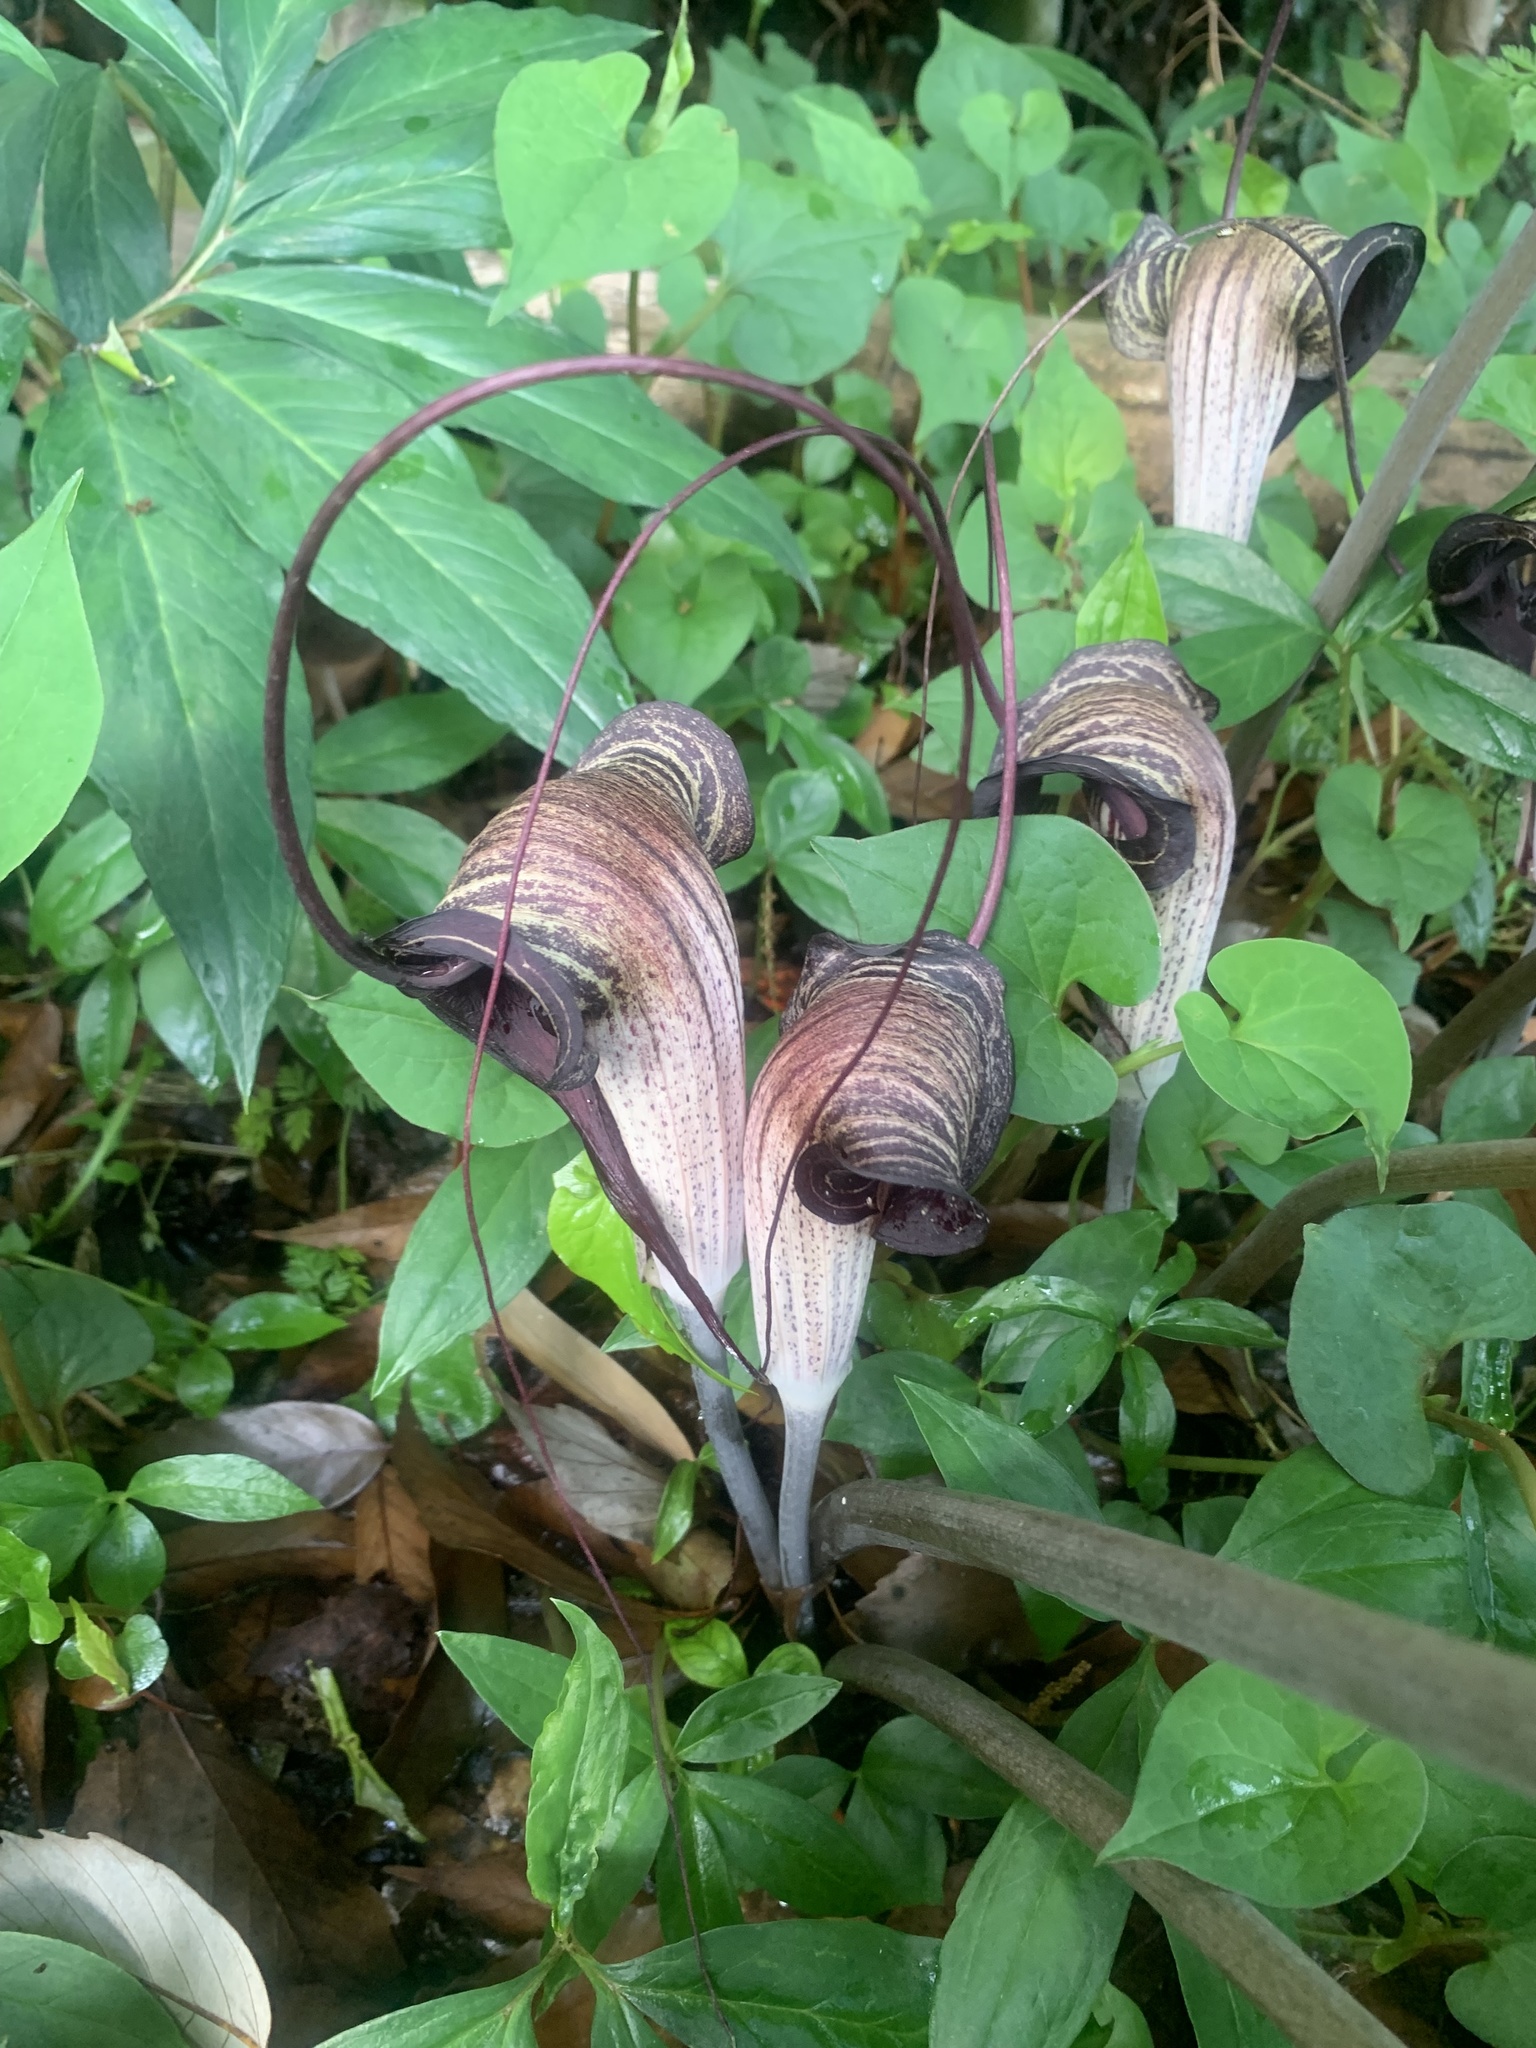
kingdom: Plantae
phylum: Tracheophyta
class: Liliopsida
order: Alismatales
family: Araceae
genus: Arisaema
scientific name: Arisaema thunbergii
